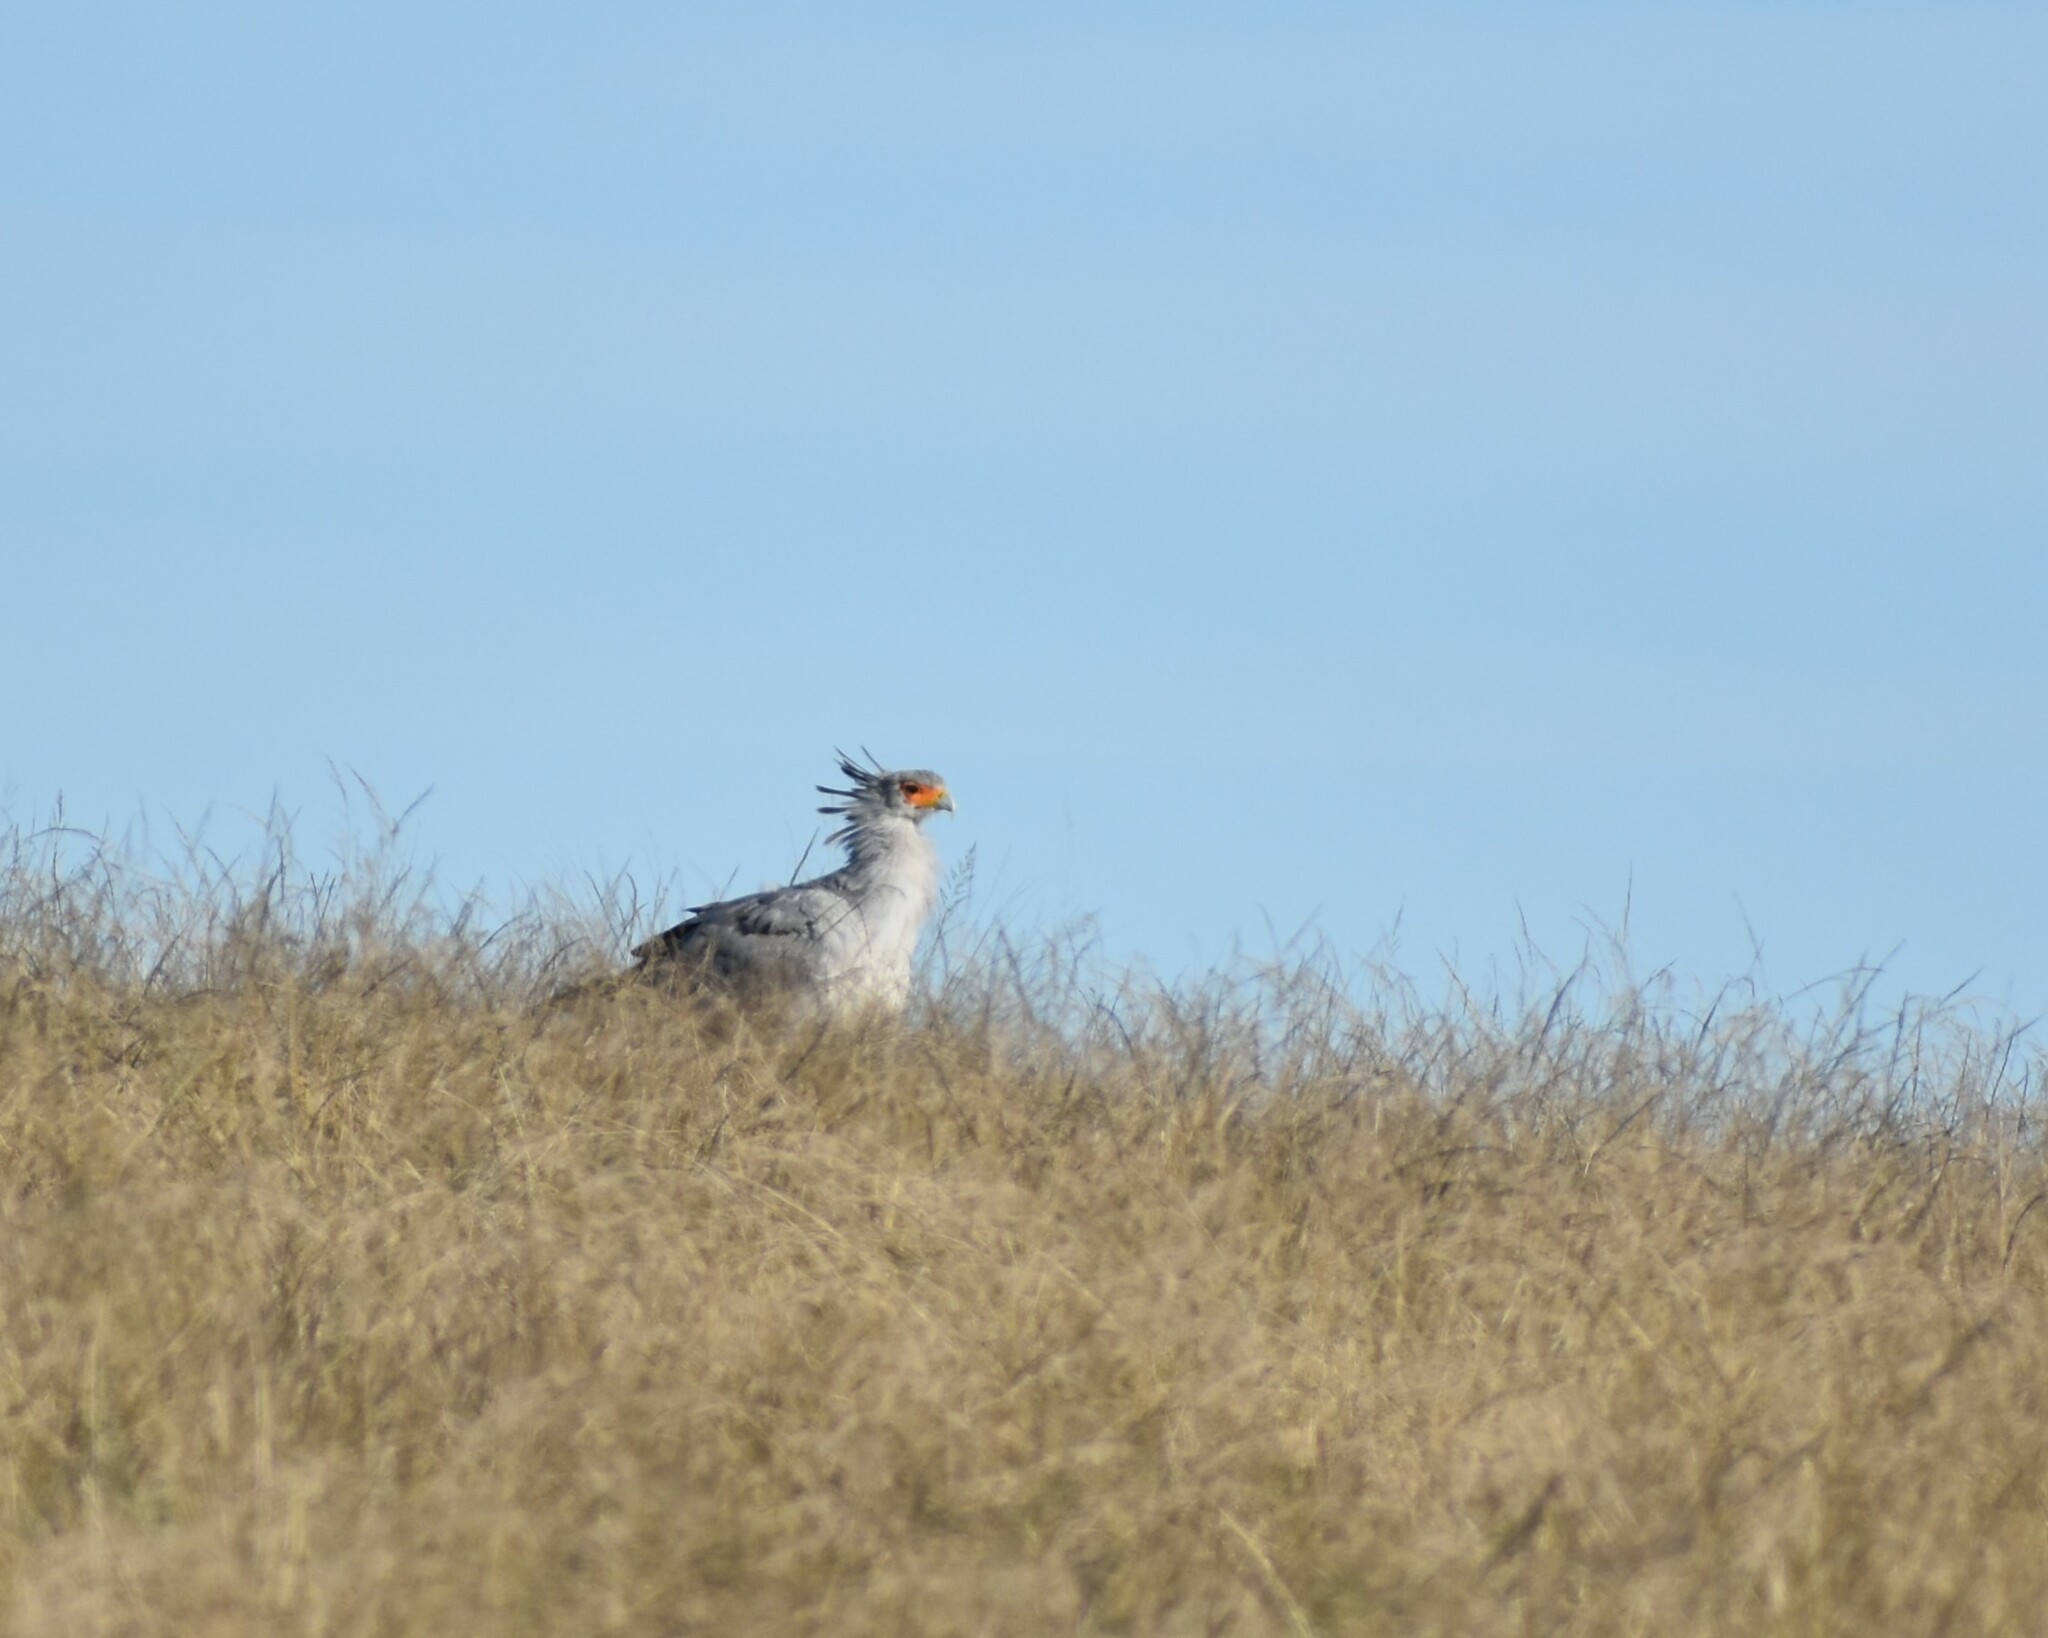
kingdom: Animalia
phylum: Chordata
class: Aves
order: Accipitriformes
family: Sagittariidae
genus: Sagittarius
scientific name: Sagittarius serpentarius
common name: Secretarybird
